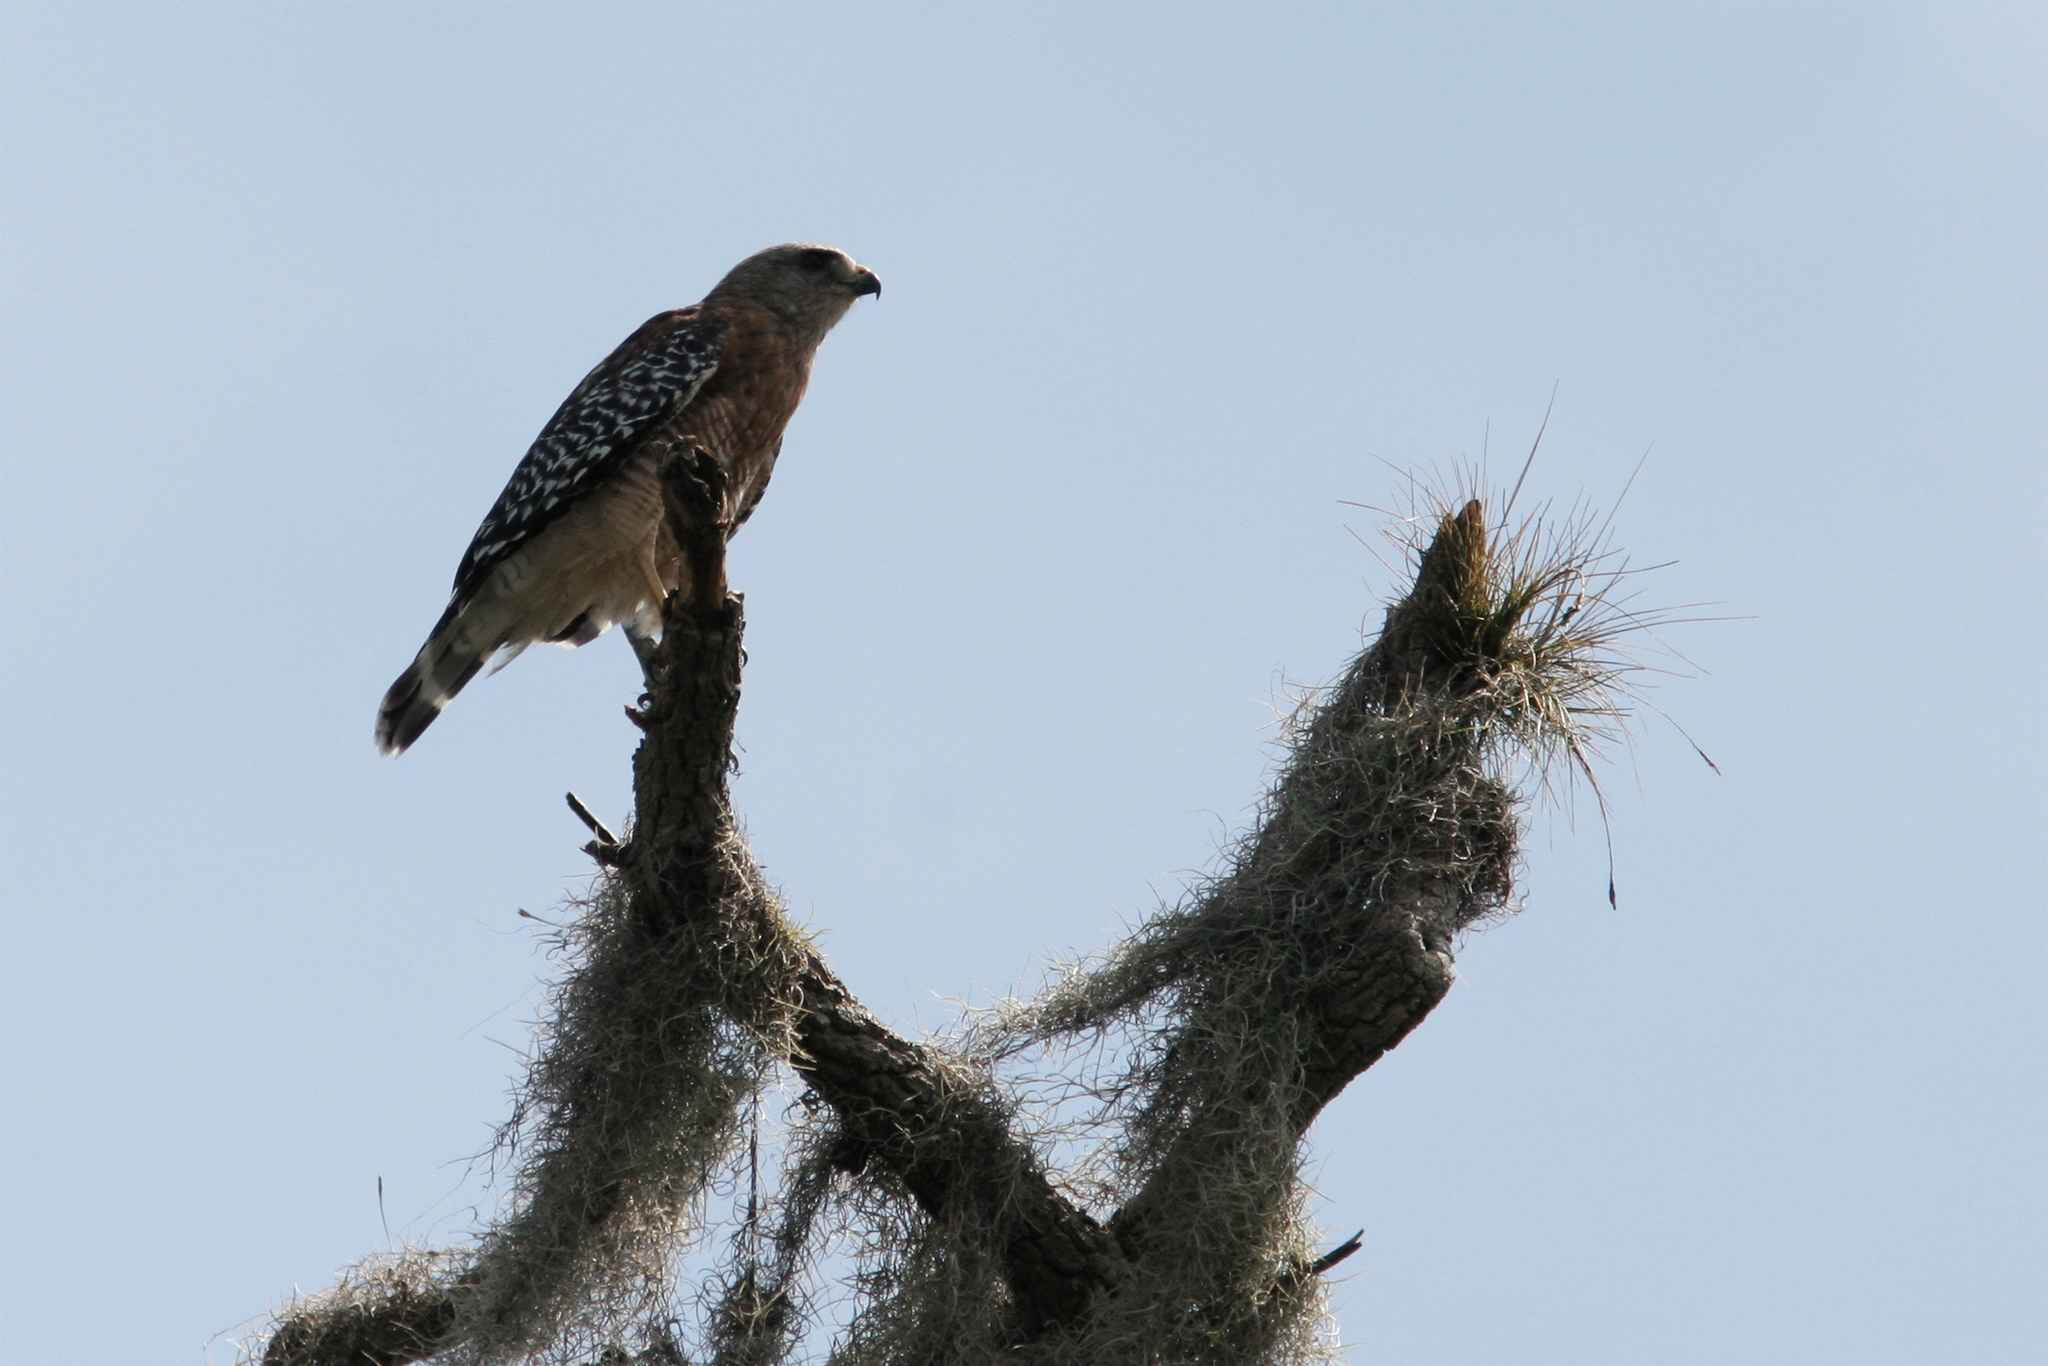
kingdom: Animalia
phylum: Chordata
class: Aves
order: Accipitriformes
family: Accipitridae
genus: Buteo
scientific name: Buteo lineatus
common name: Red-shouldered hawk
